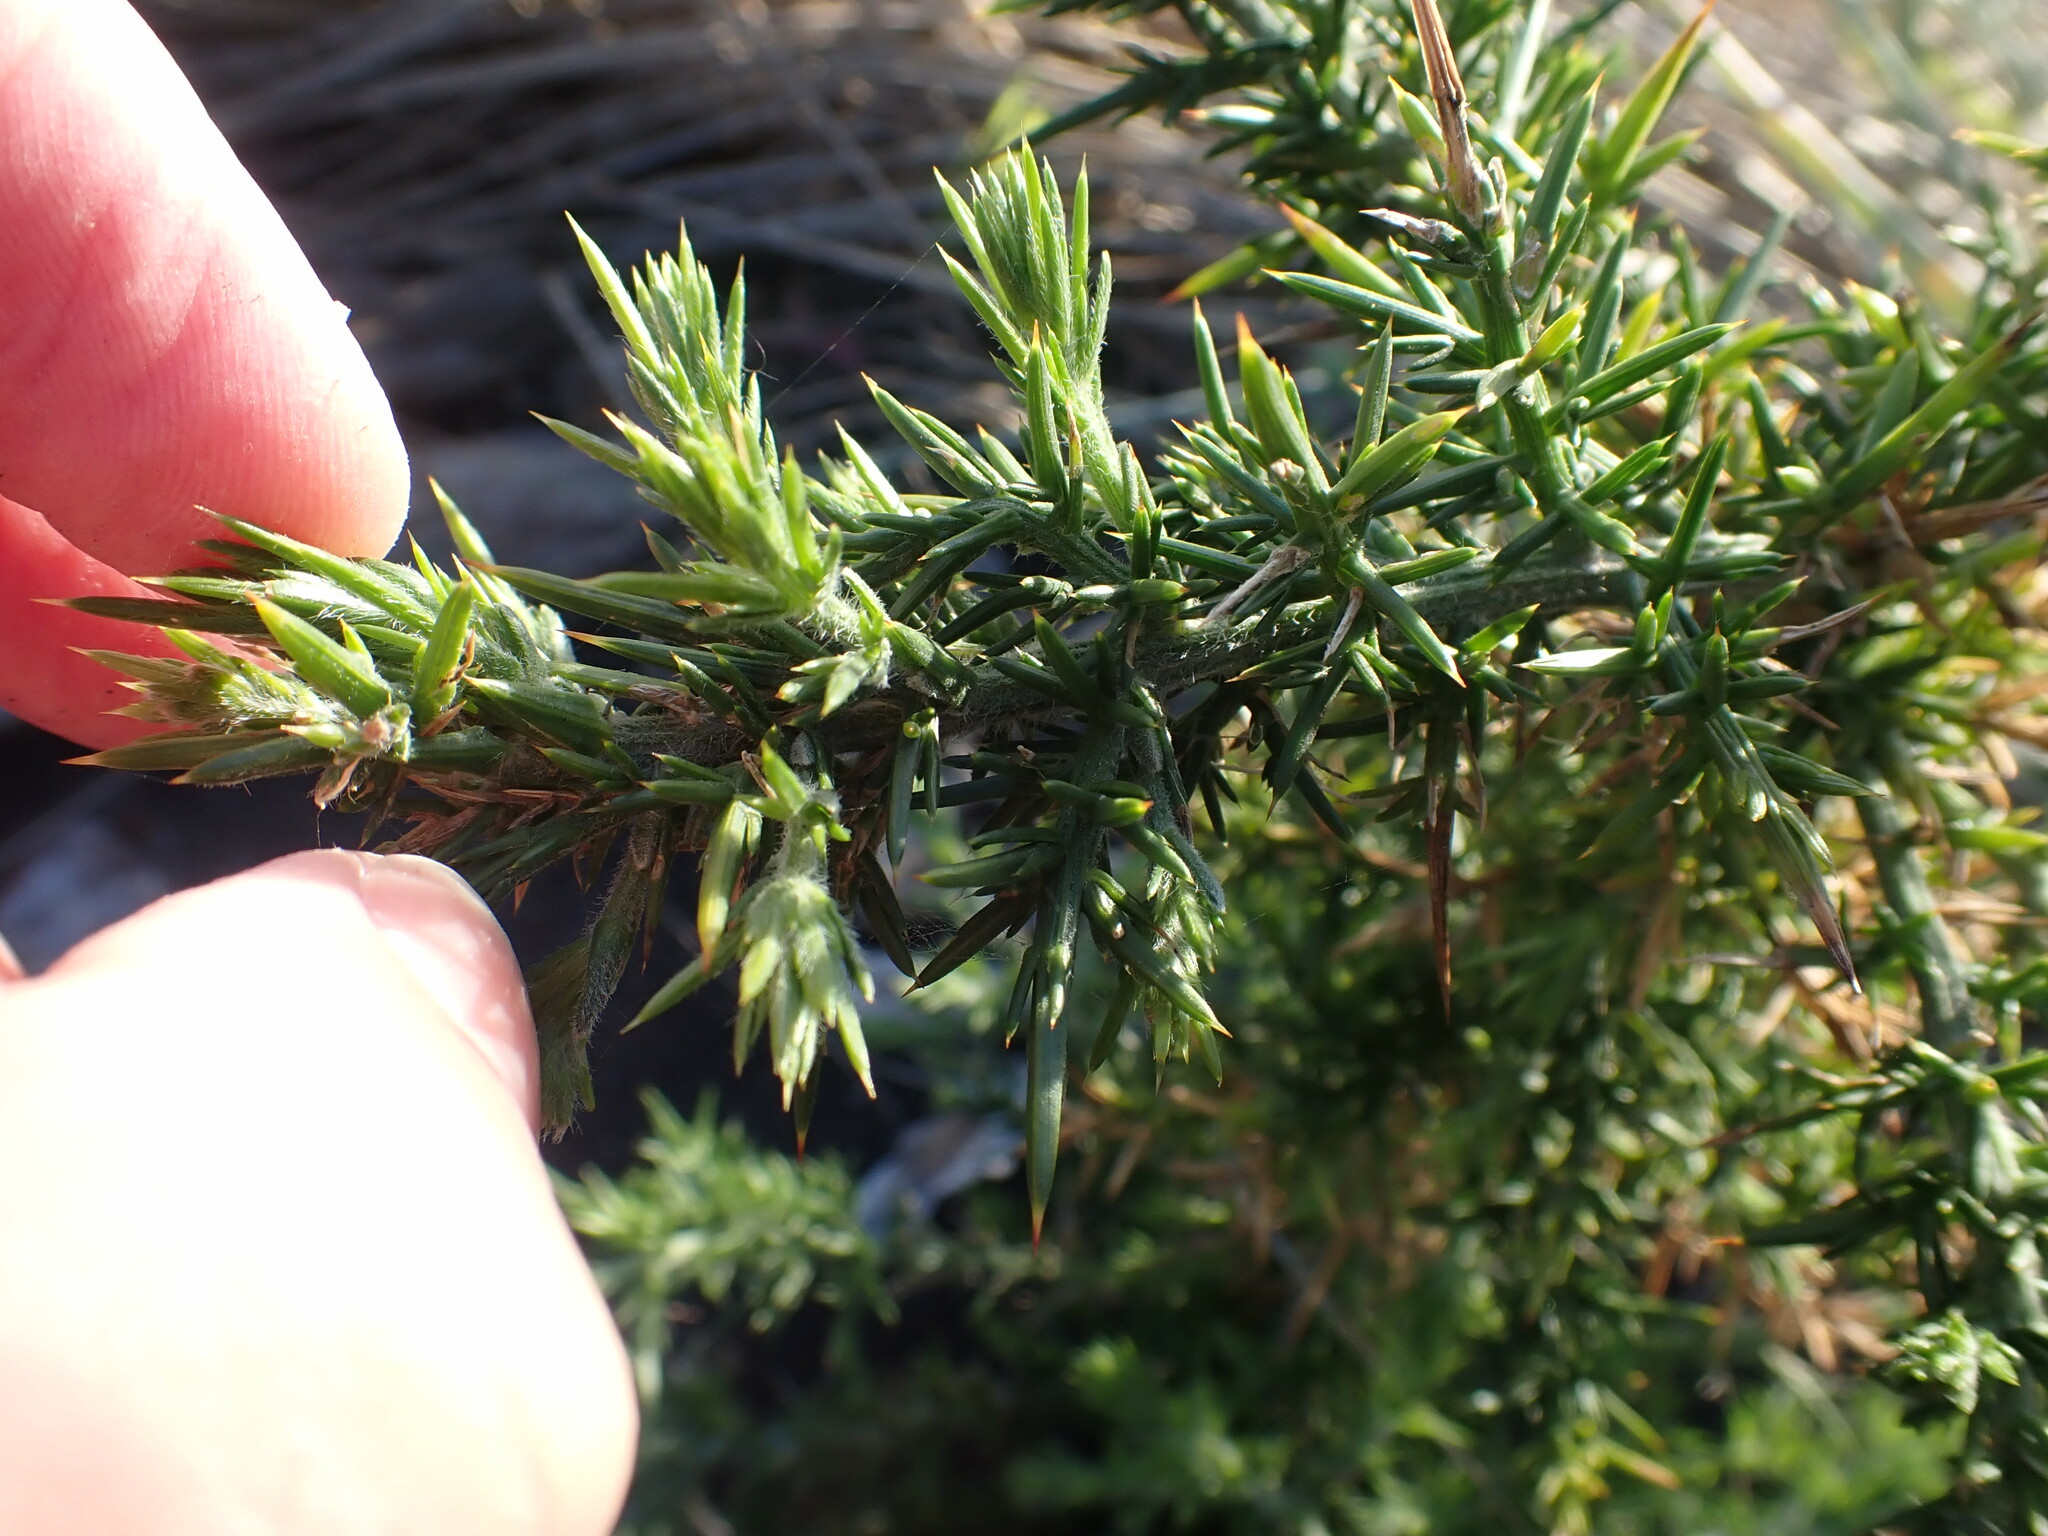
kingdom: Plantae
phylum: Tracheophyta
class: Magnoliopsida
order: Fabales
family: Fabaceae
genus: Ulex
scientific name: Ulex europaeus
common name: Common gorse
